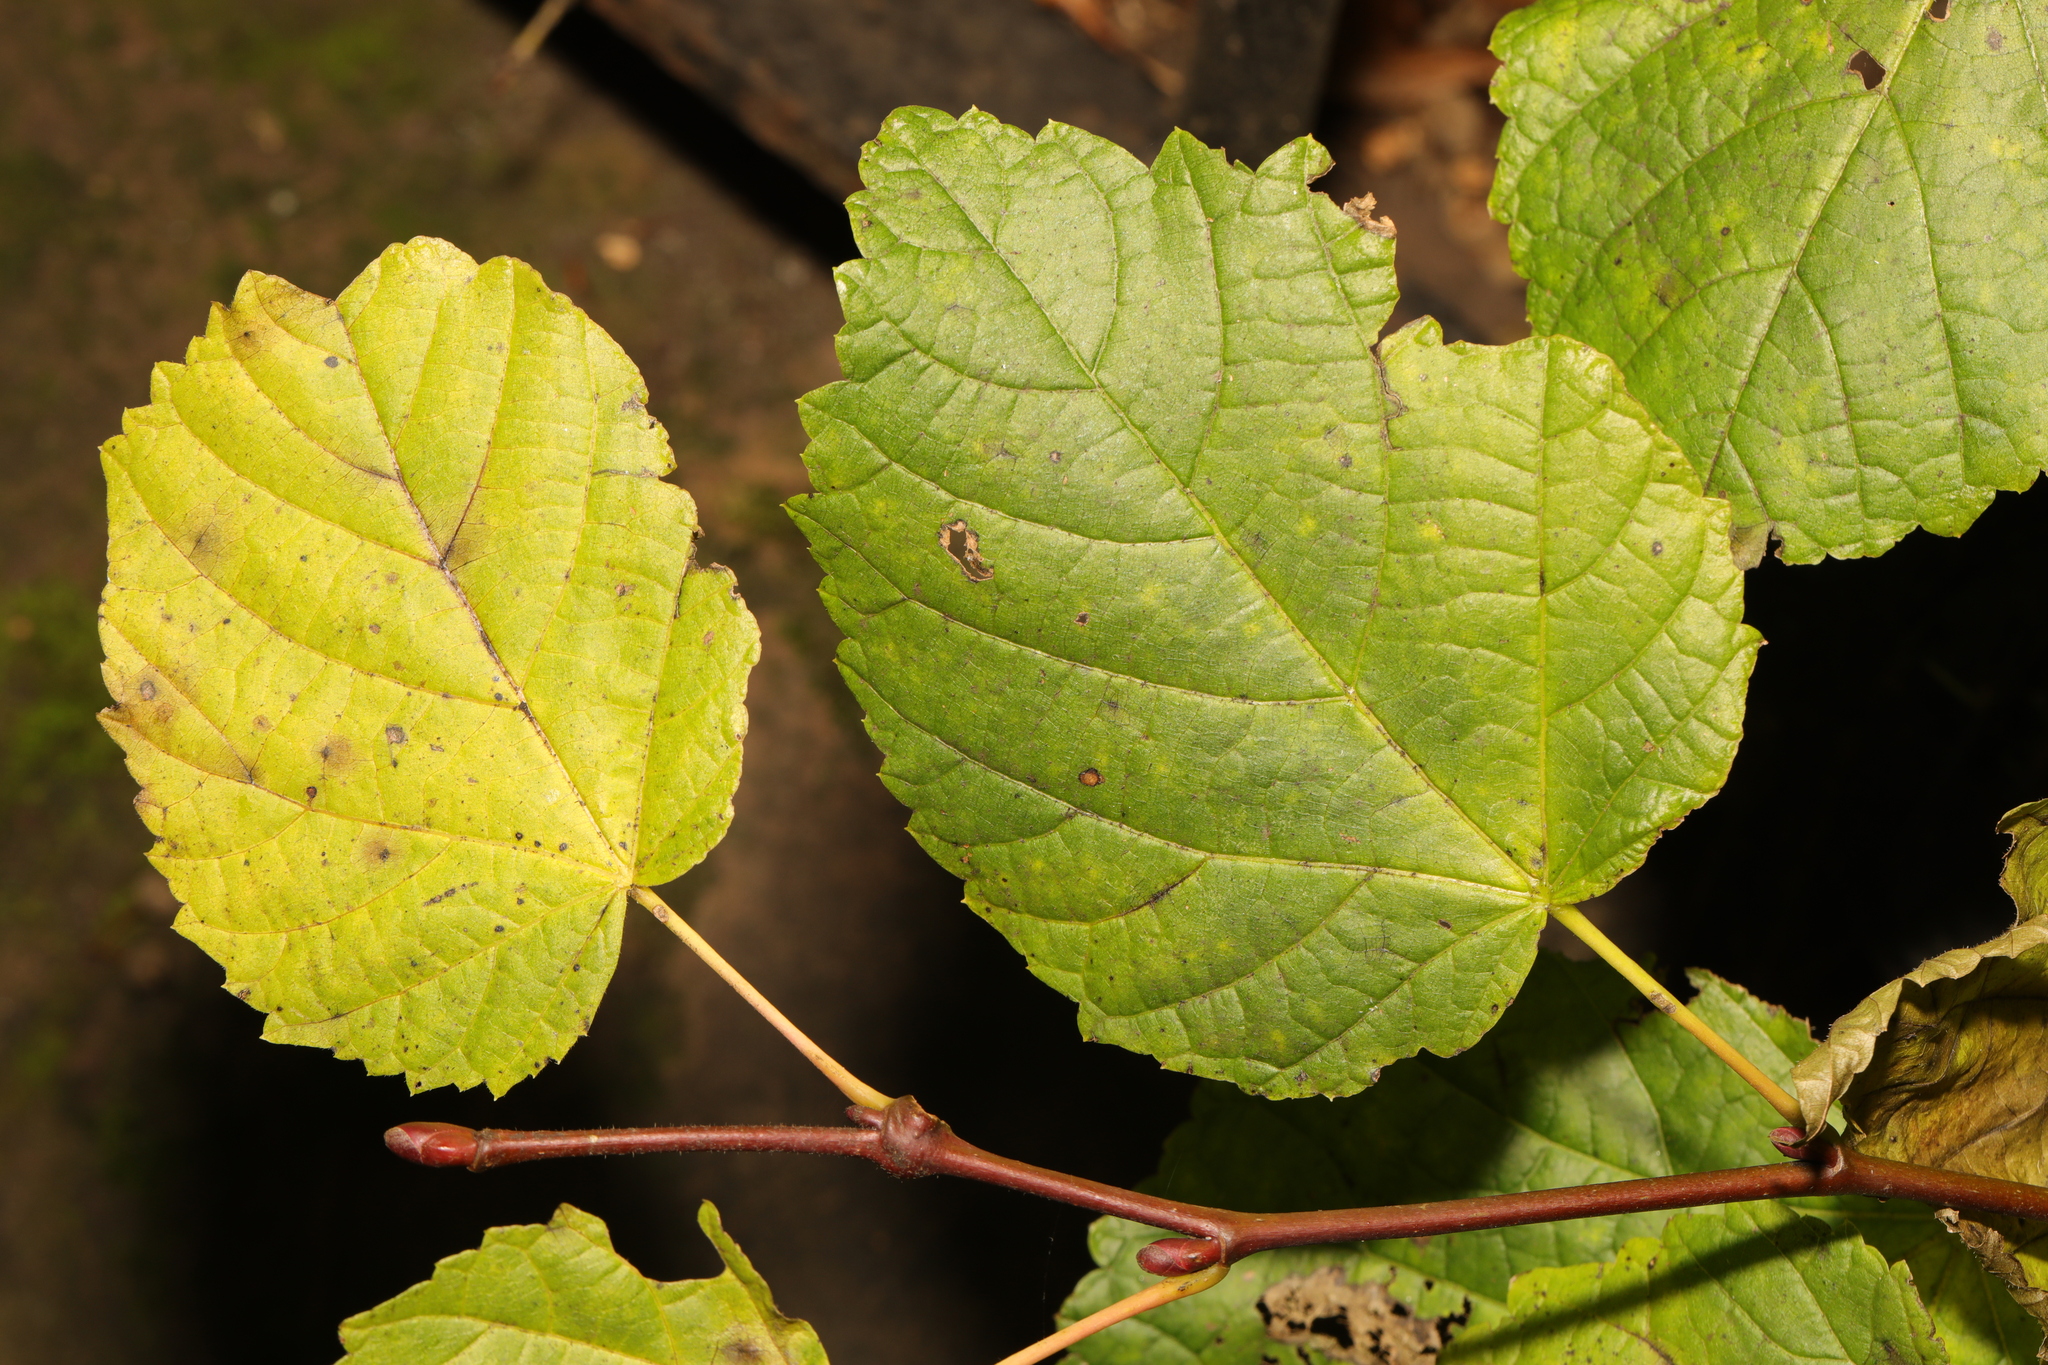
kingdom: Plantae
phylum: Tracheophyta
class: Magnoliopsida
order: Fagales
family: Betulaceae
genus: Corylus
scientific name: Corylus avellana
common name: European hazel
